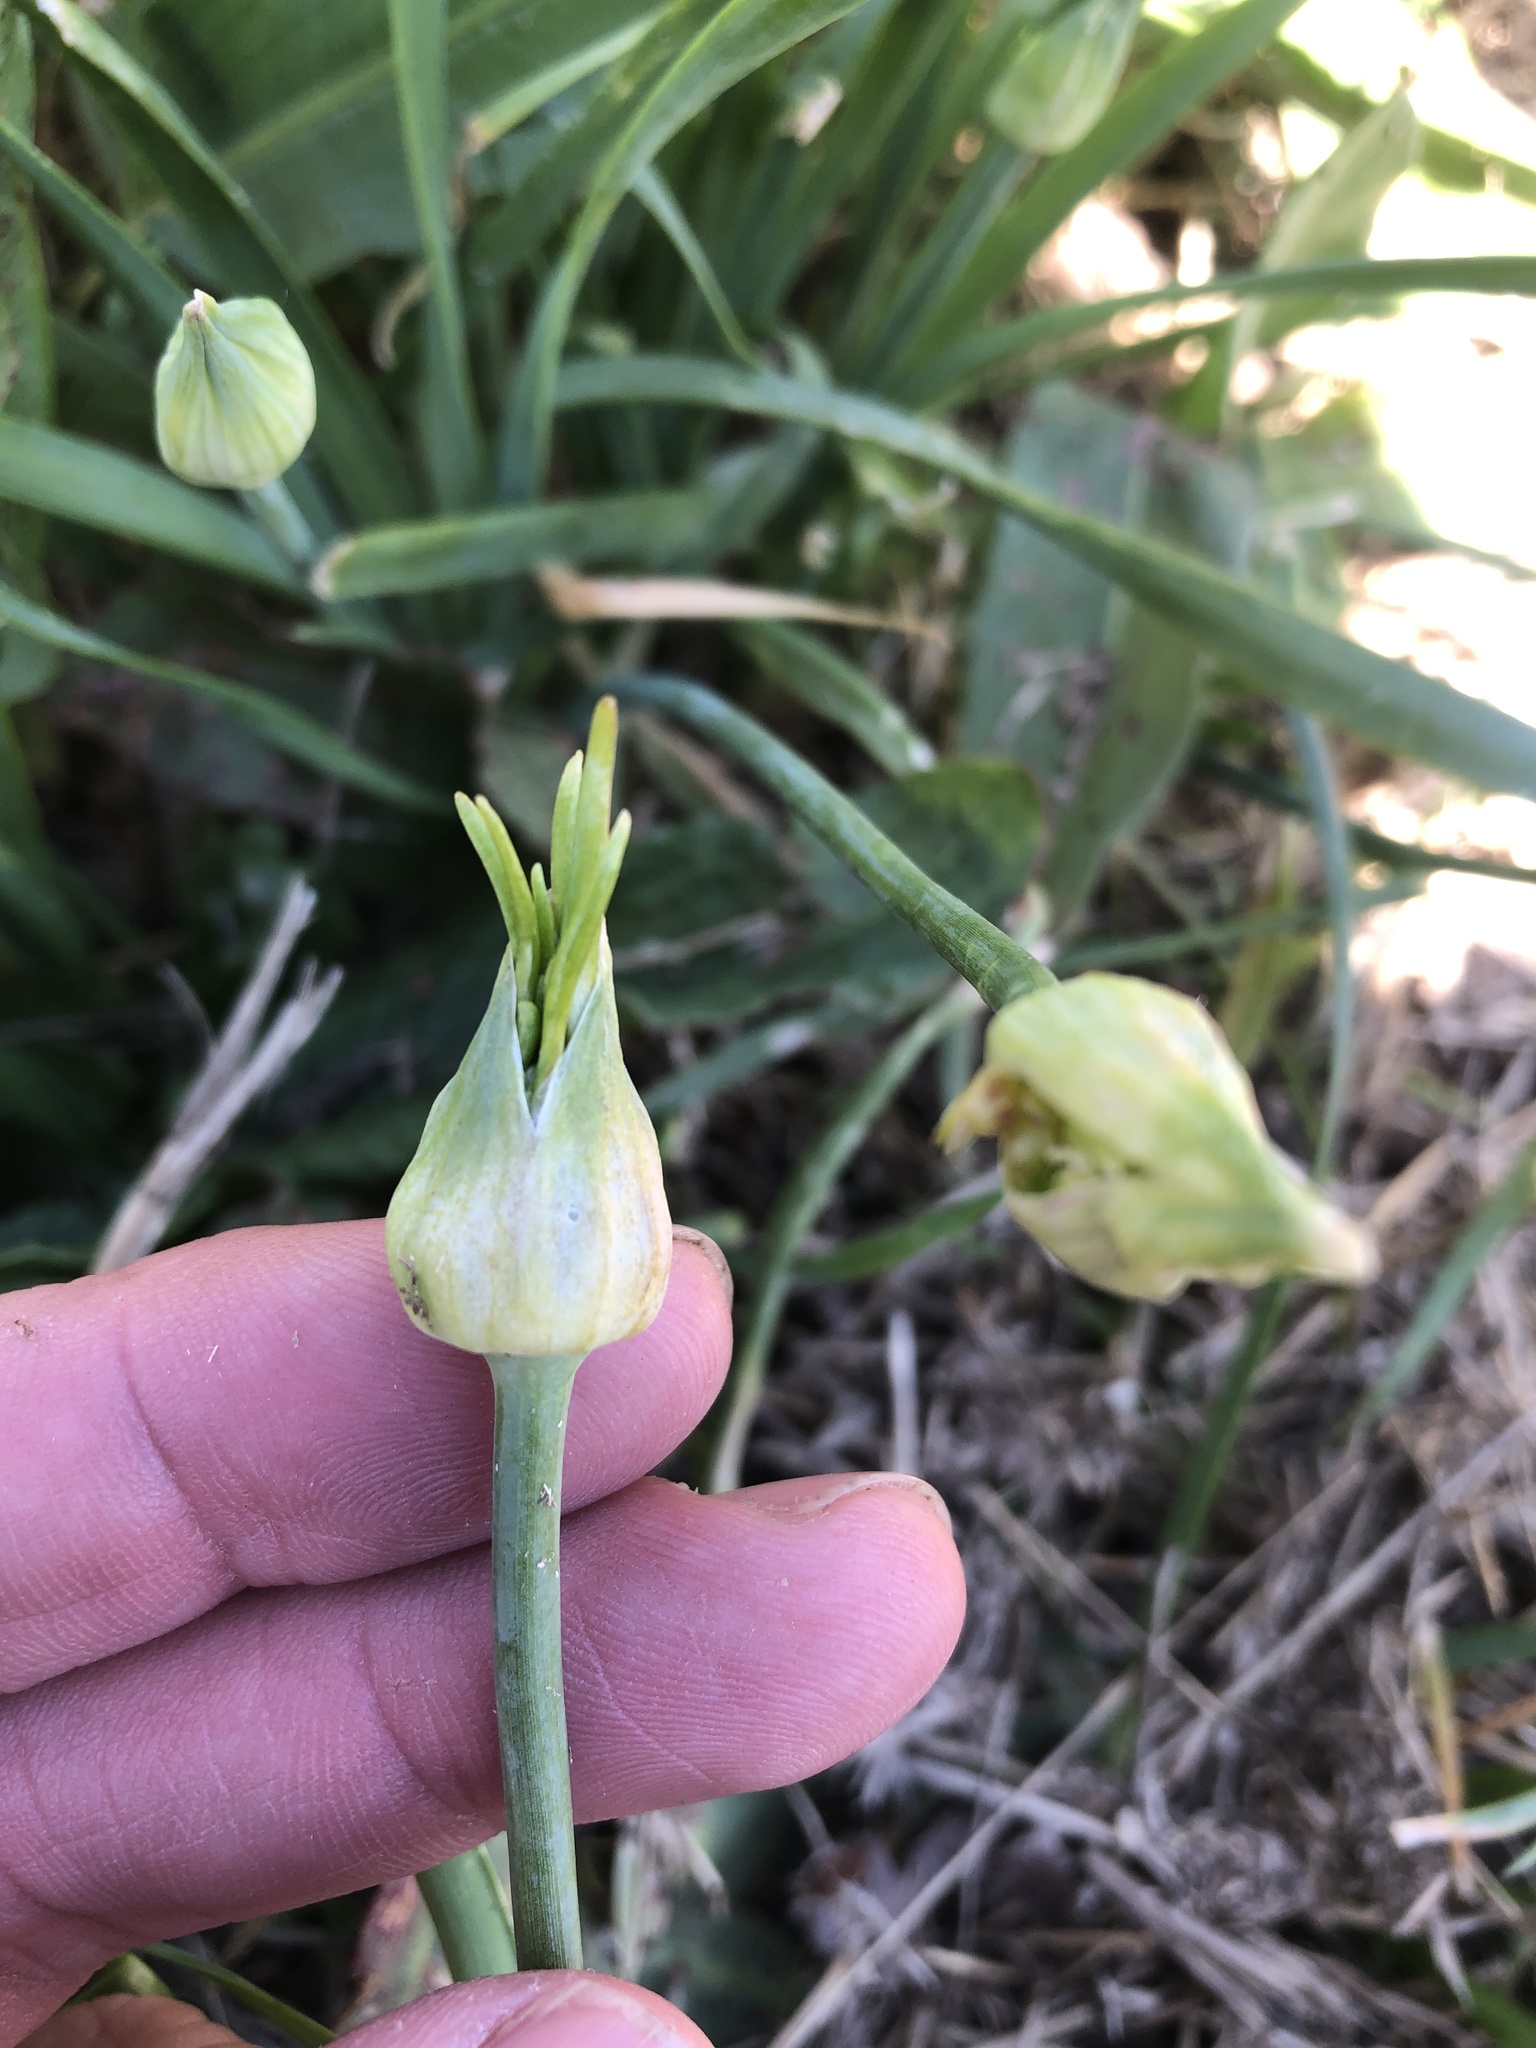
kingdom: Plantae
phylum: Tracheophyta
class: Liliopsida
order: Asparagales
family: Amaryllidaceae
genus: Allium
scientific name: Allium canadense
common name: Meadow garlic
